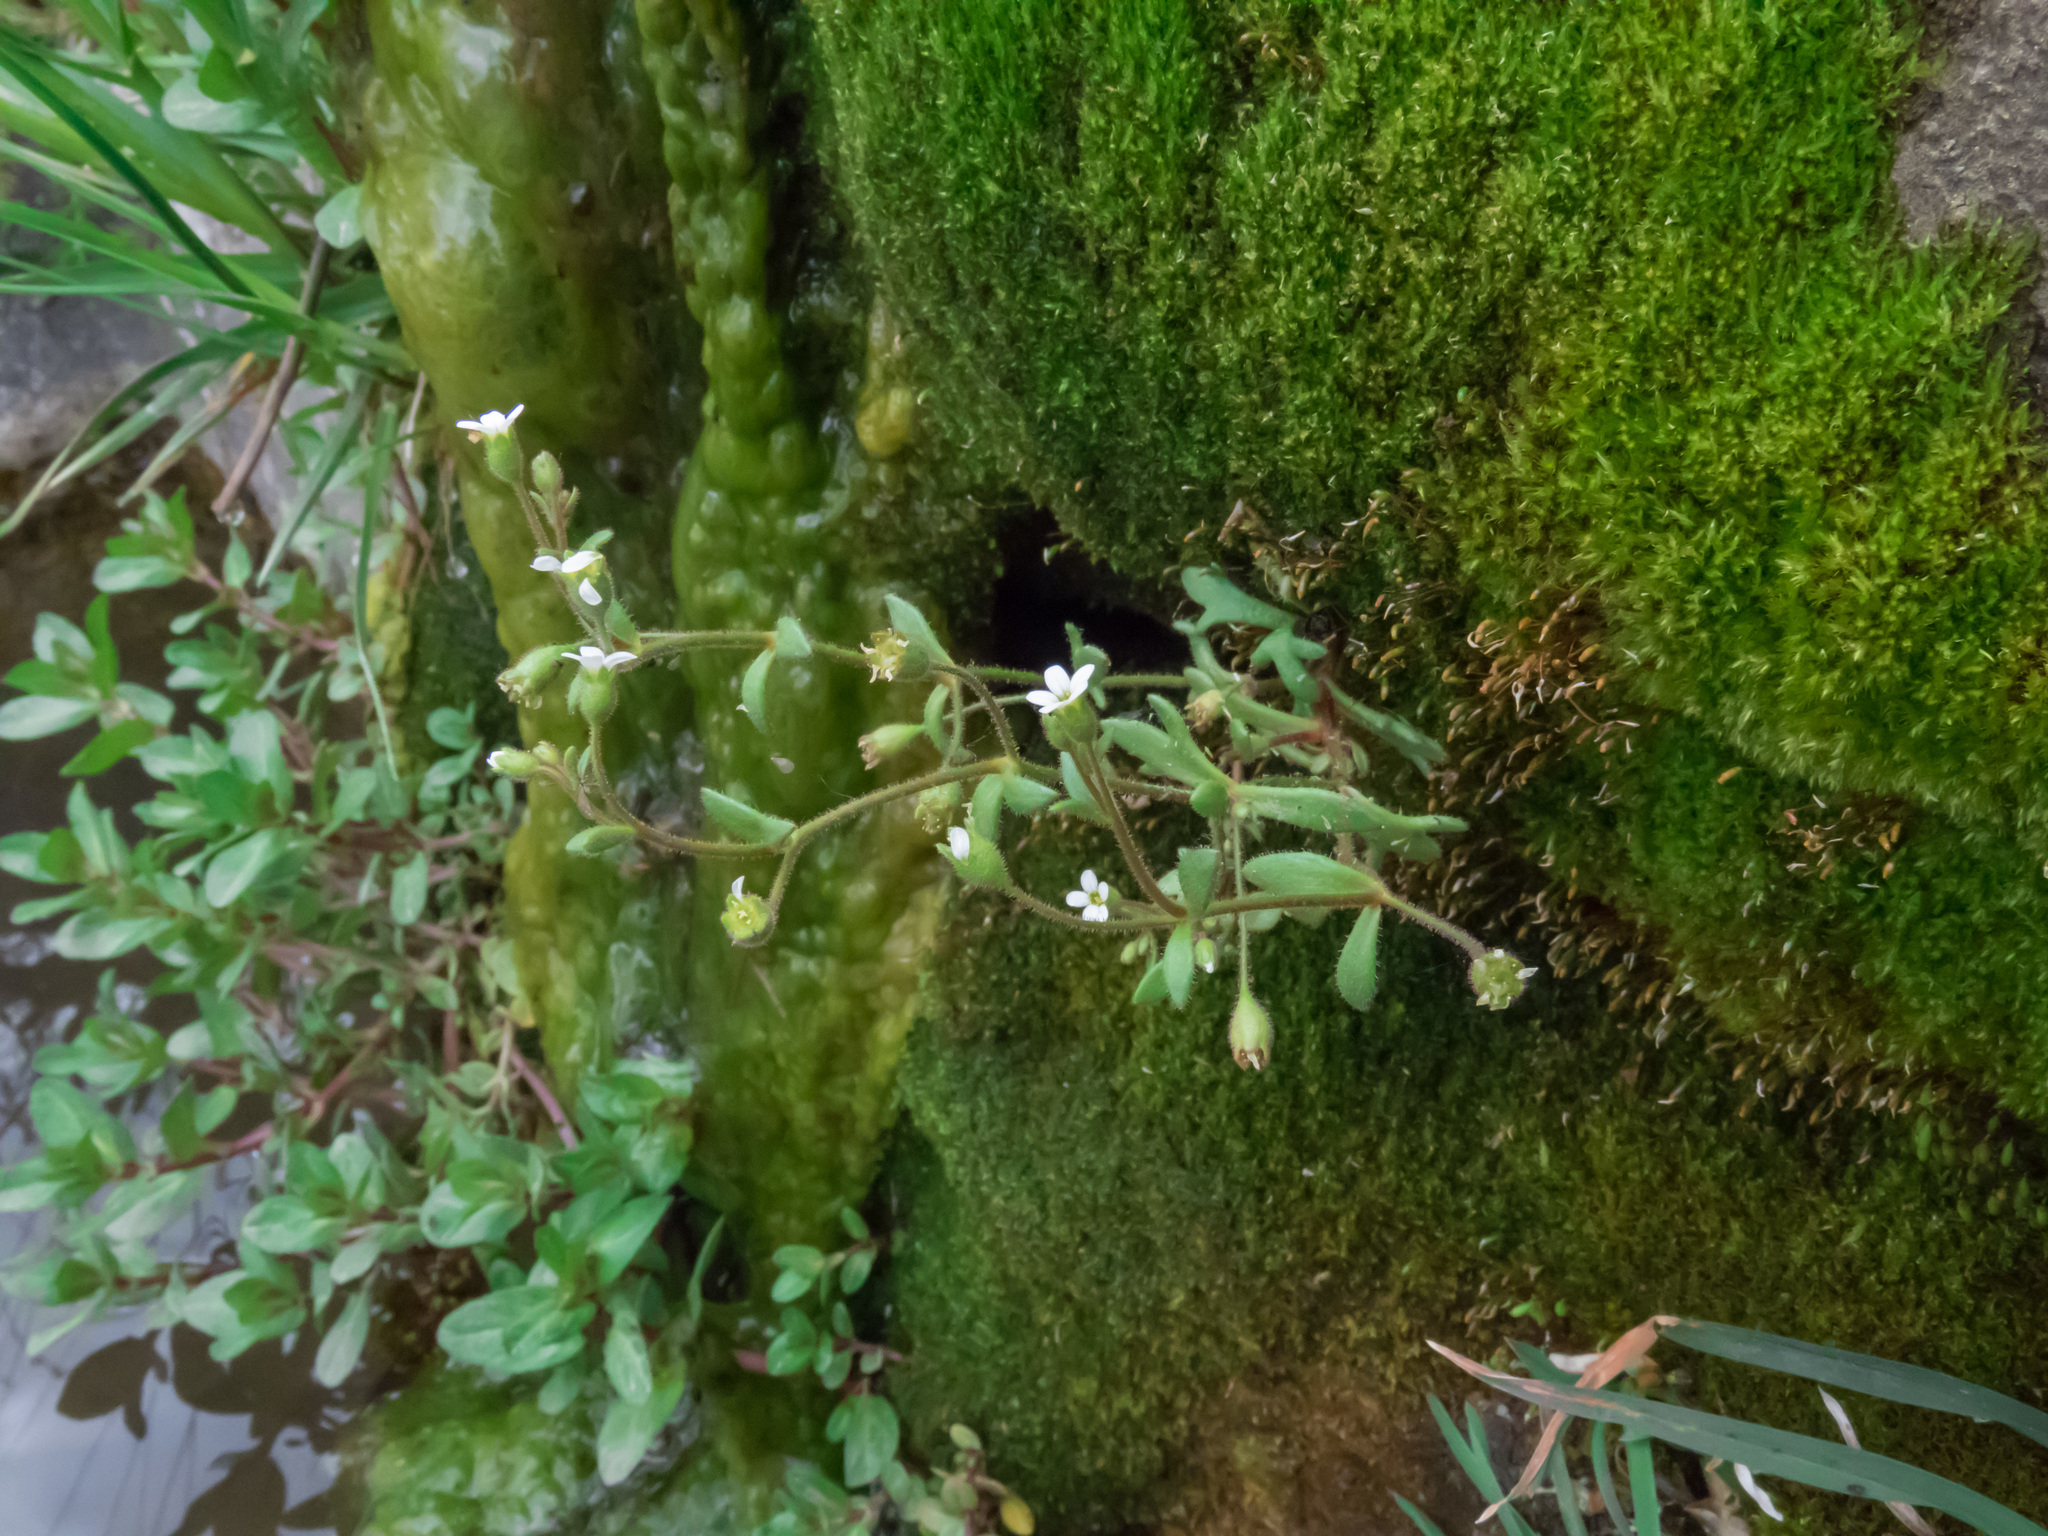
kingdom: Plantae
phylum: Tracheophyta
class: Magnoliopsida
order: Saxifragales
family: Saxifragaceae
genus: Saxifraga
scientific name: Saxifraga tridactylites
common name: Rue-leaved saxifrage
